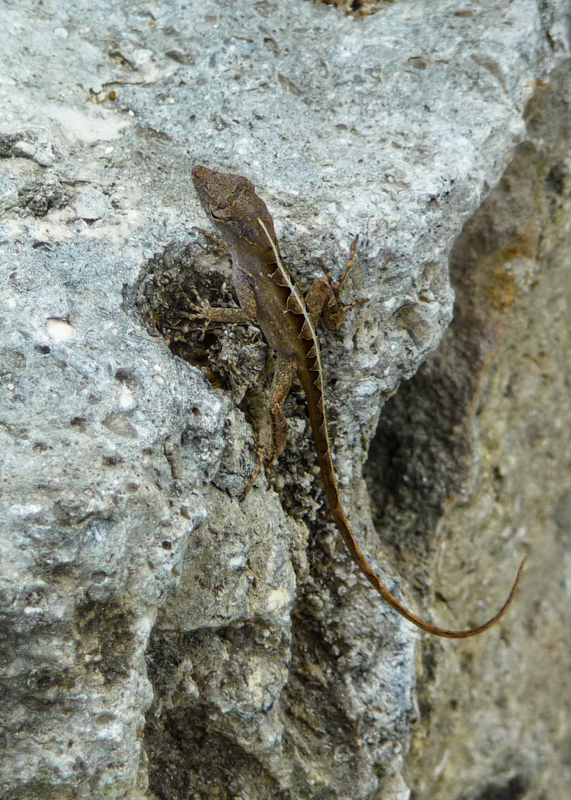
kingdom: Animalia
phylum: Chordata
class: Squamata
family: Dactyloidae
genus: Anolis
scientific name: Anolis sagrei
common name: Brown anole
